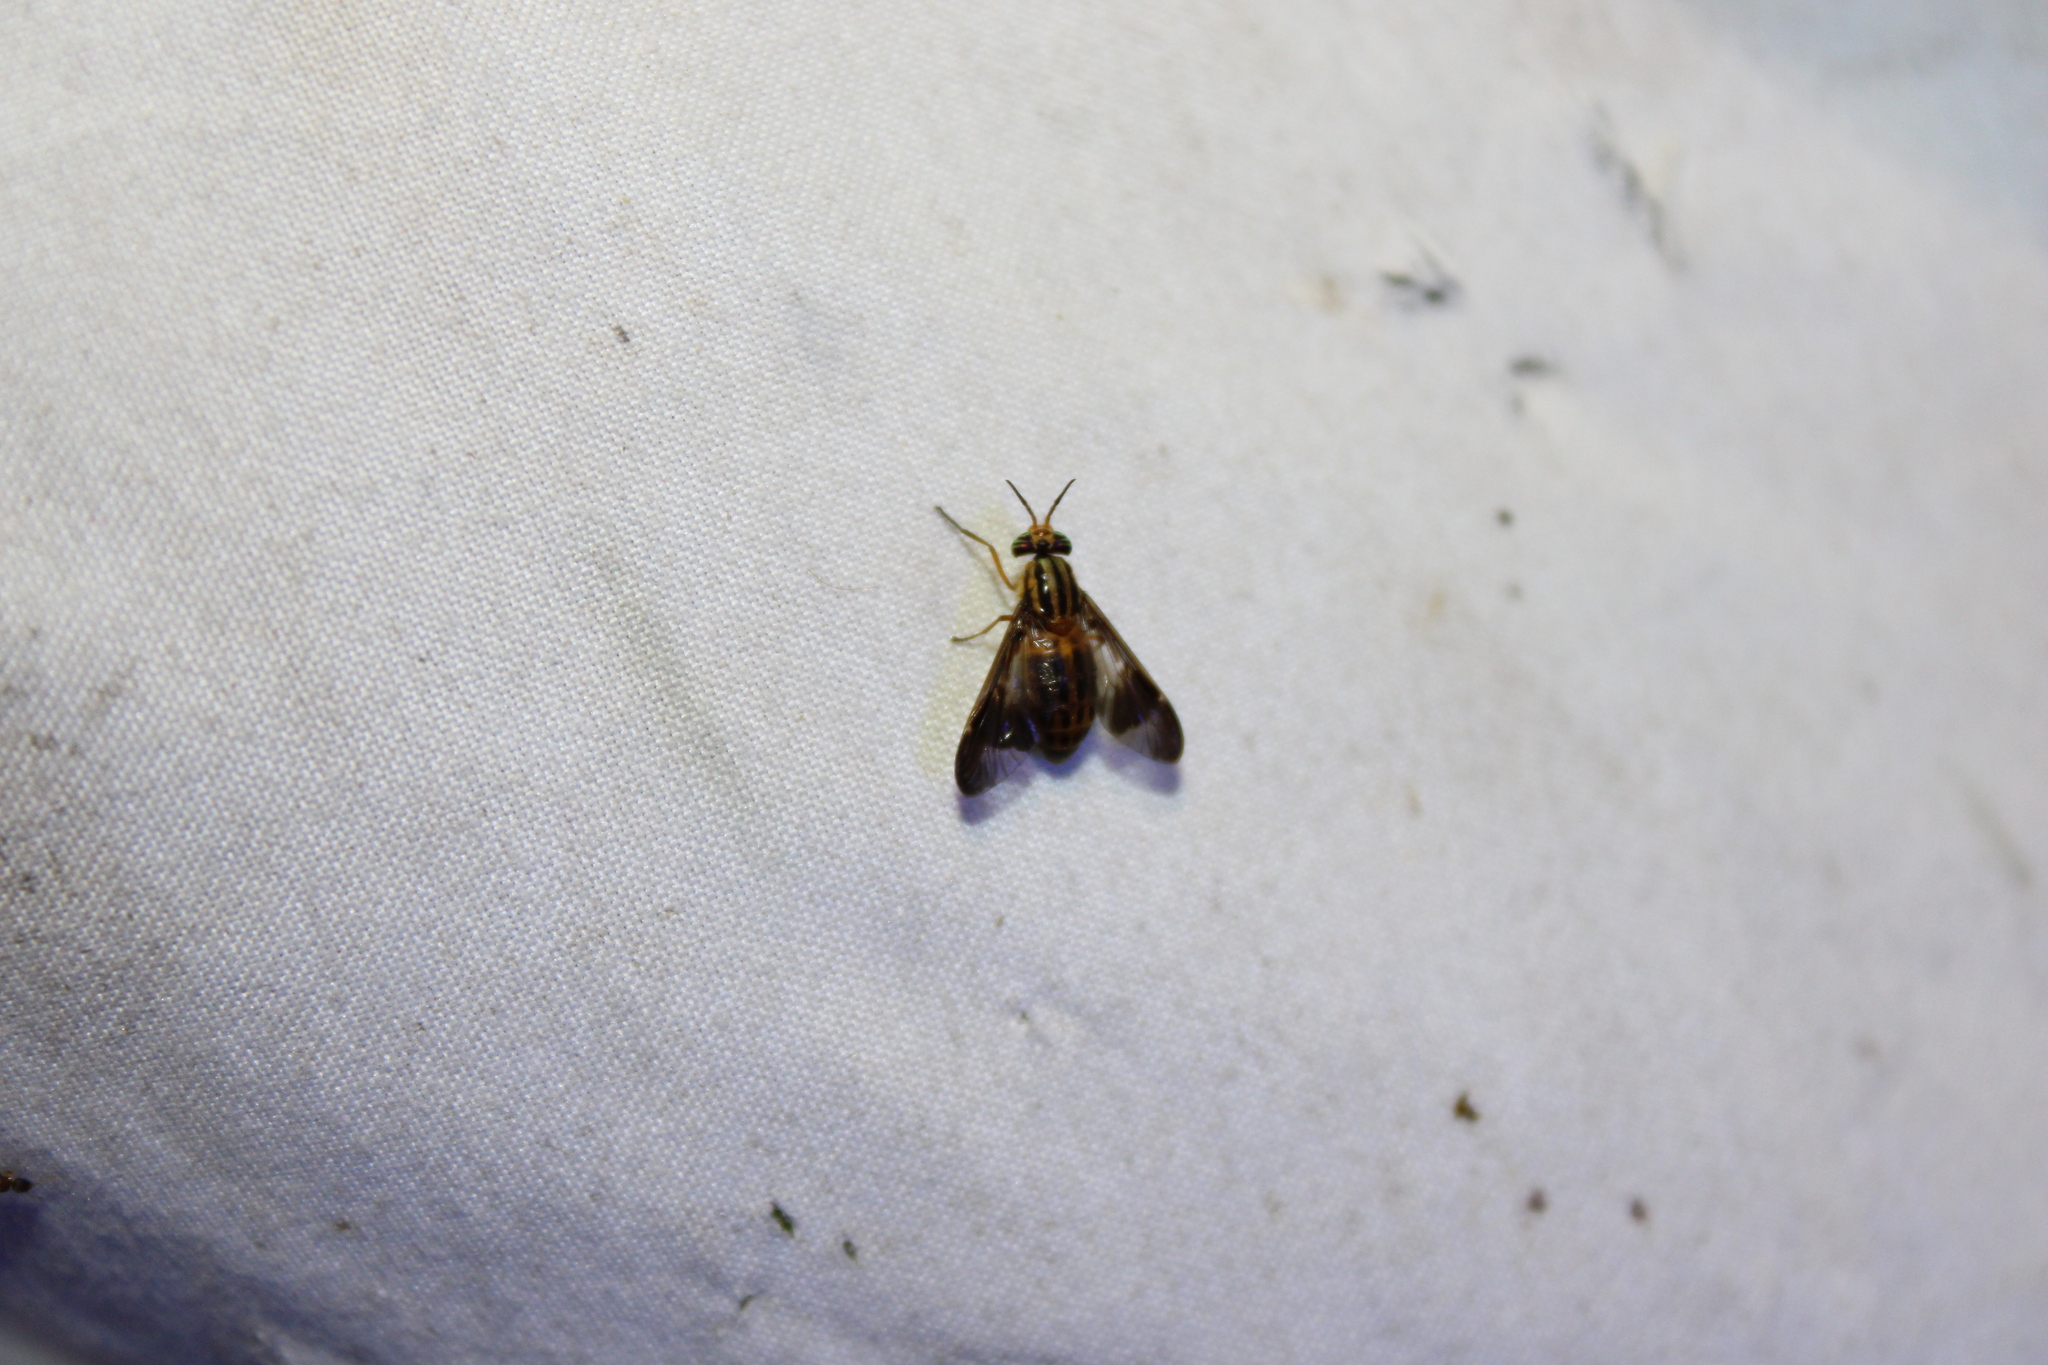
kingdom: Animalia
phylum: Arthropoda
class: Insecta
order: Diptera
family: Tabanidae
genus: Chrysops
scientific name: Chrysops vittatus
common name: Striped deer fly
